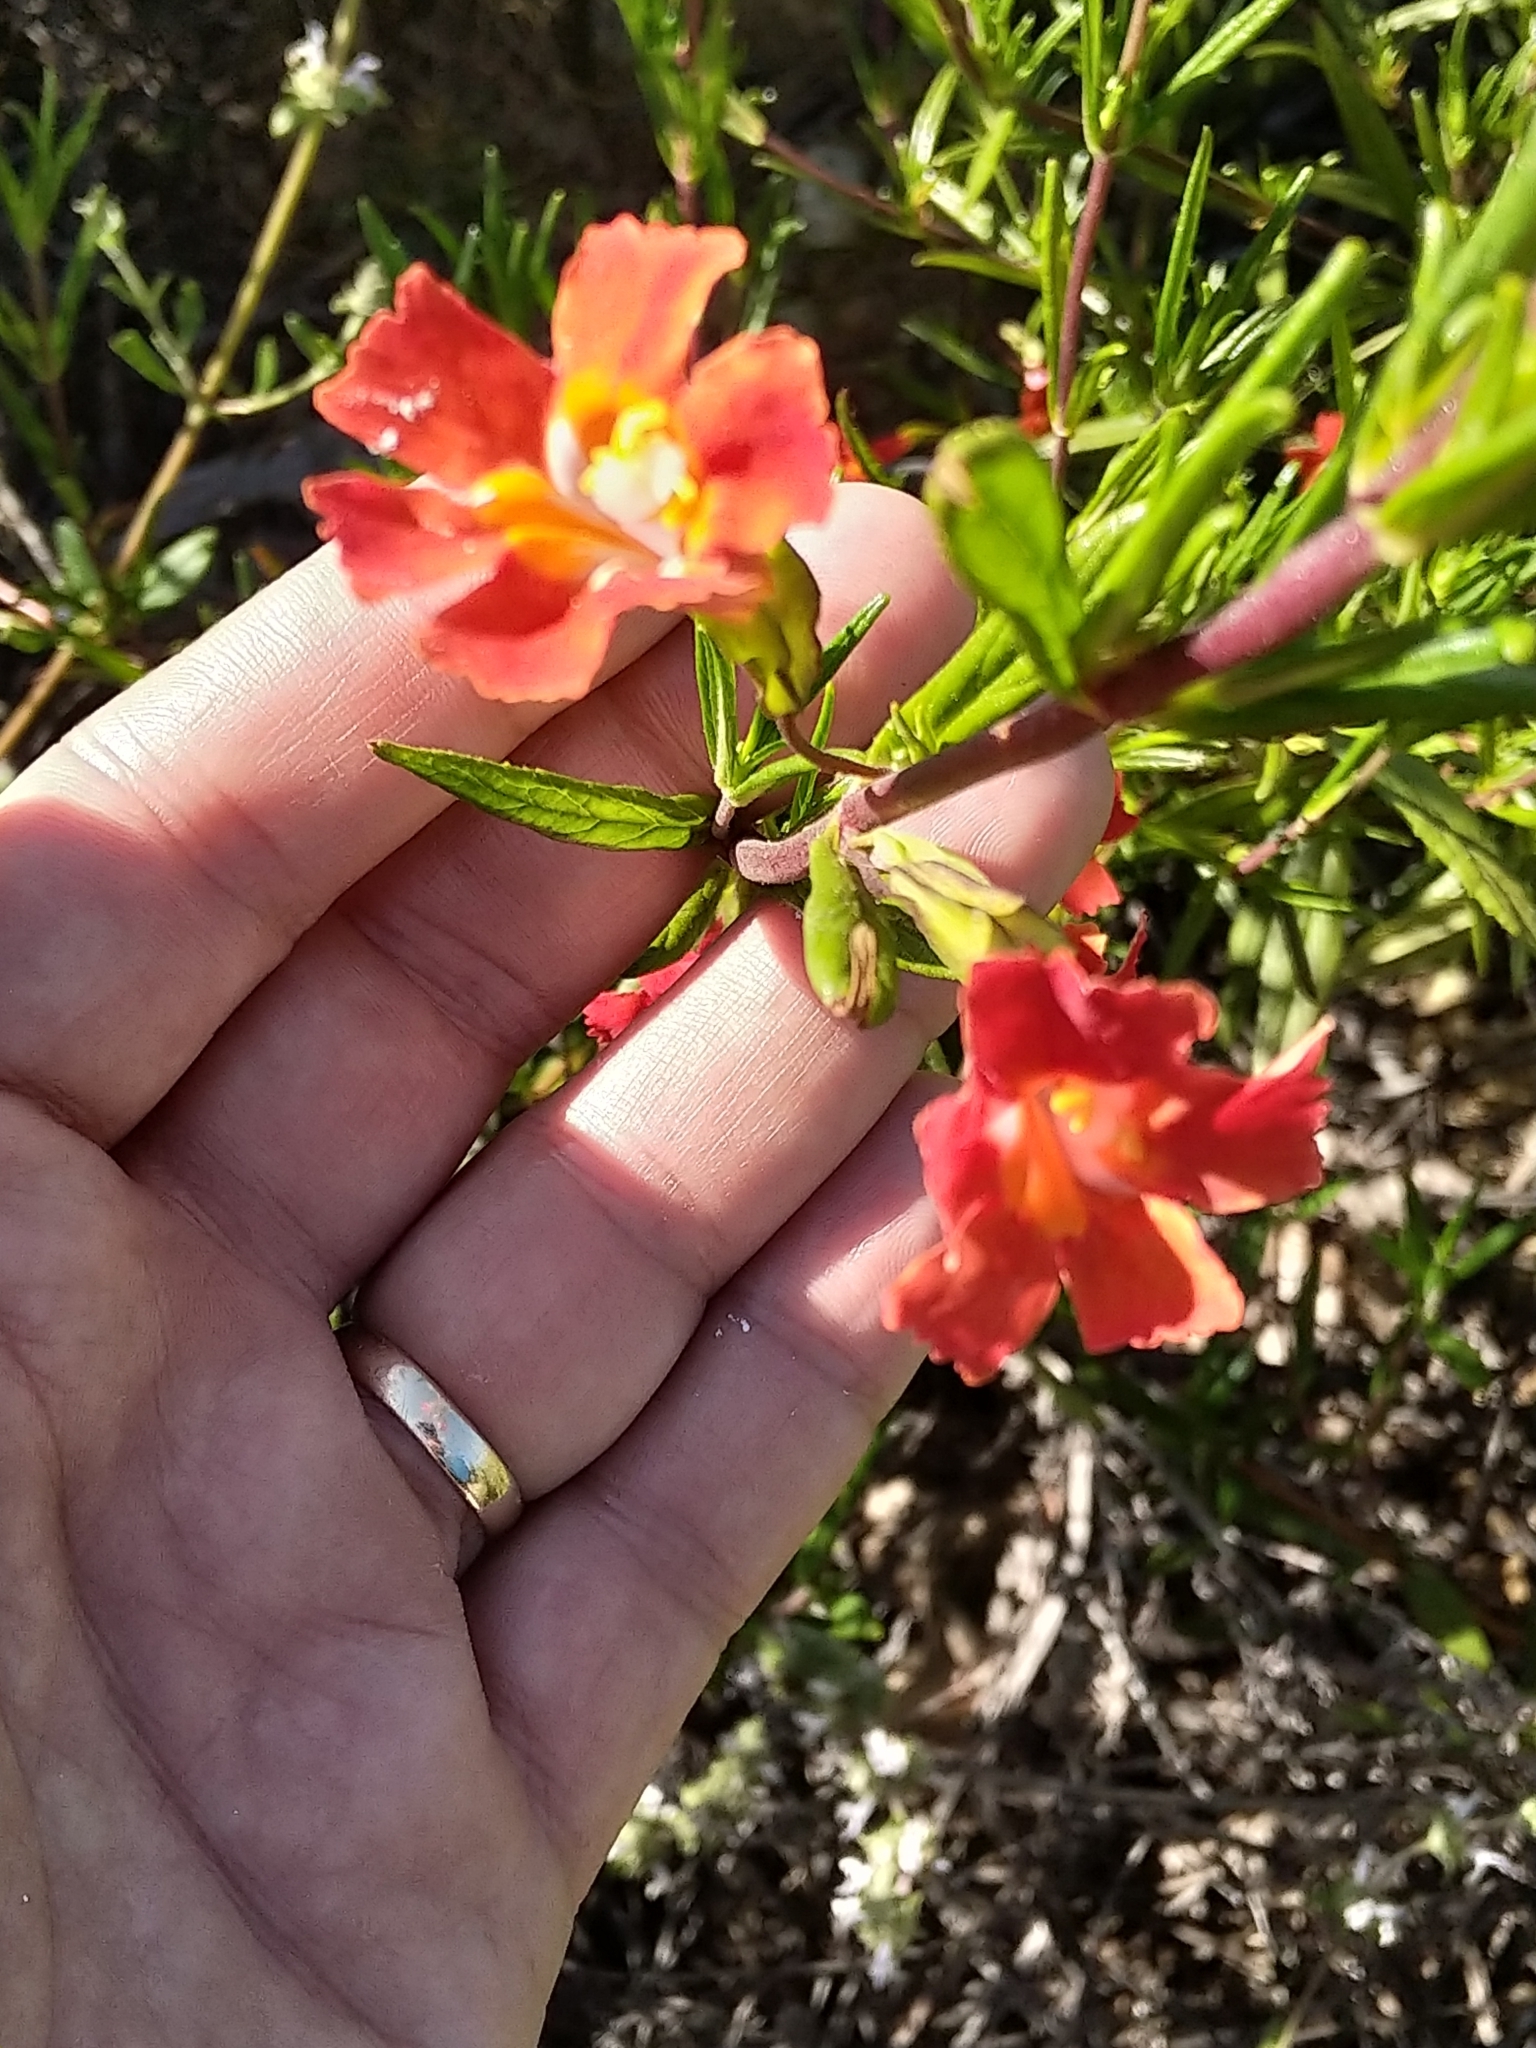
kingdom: Plantae
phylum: Tracheophyta
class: Magnoliopsida
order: Lamiales
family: Phrymaceae
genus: Diplacus
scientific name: Diplacus puniceus
